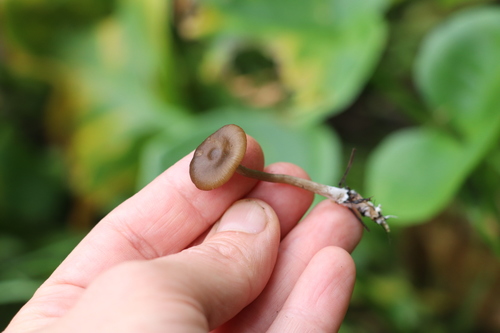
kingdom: Fungi
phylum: Basidiomycota
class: Agaricomycetes
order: Agaricales
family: Entolomataceae
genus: Entoloma
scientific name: Entoloma
